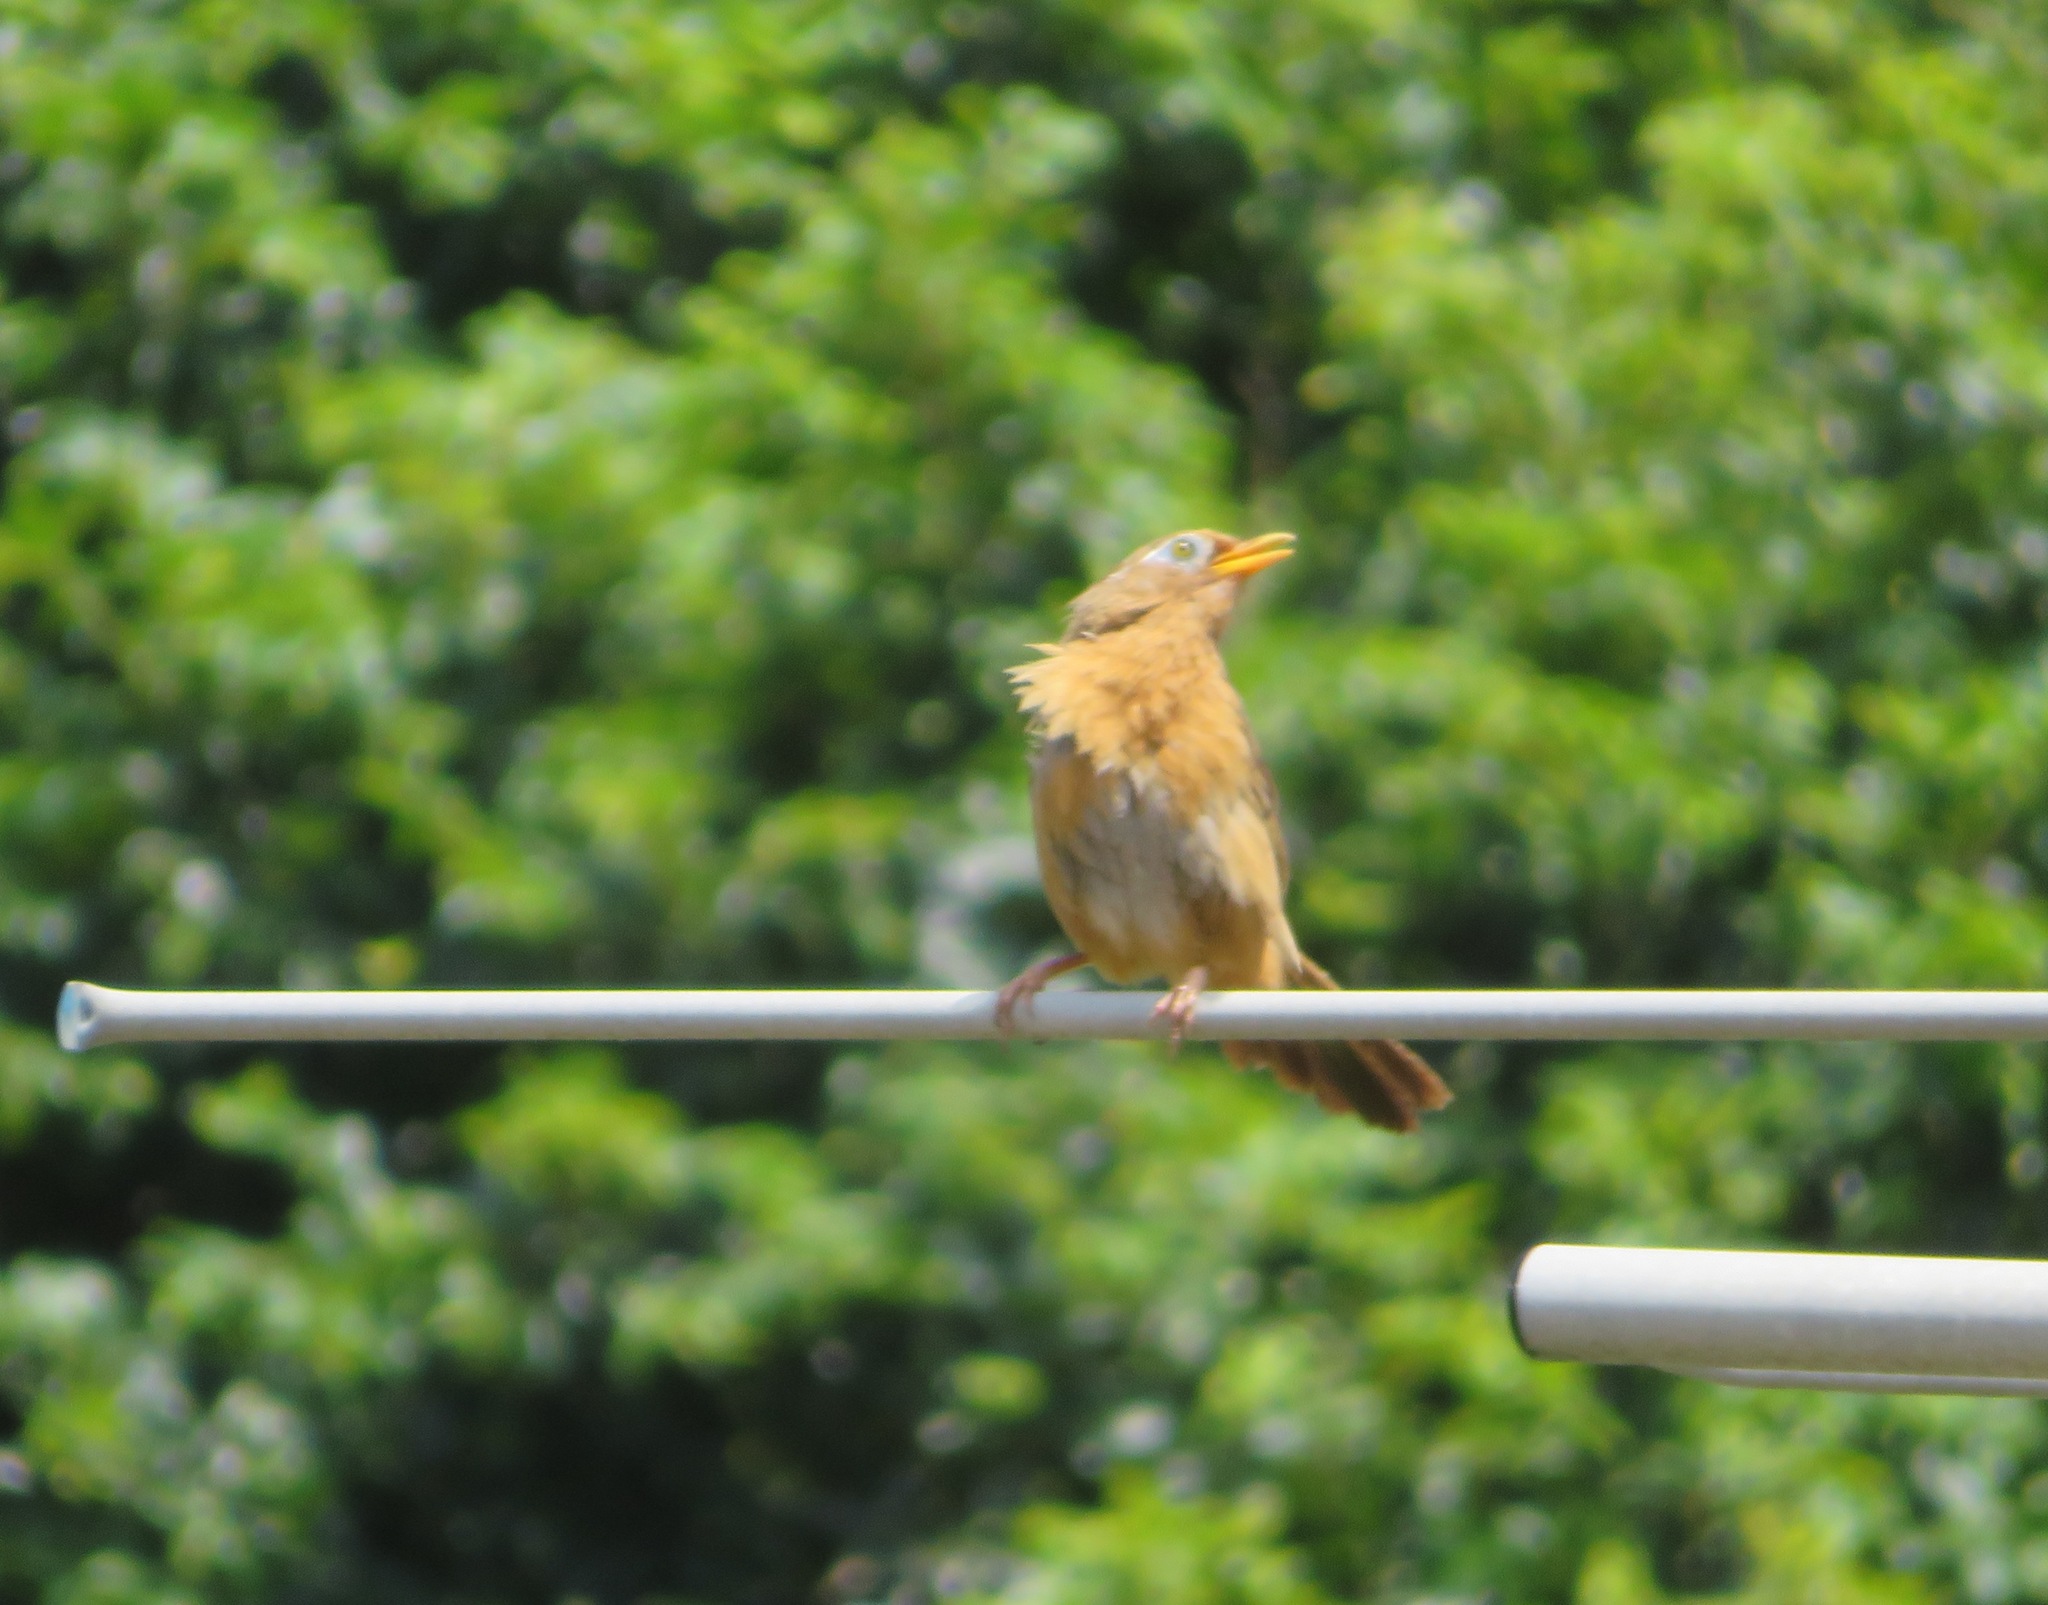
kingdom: Animalia
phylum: Chordata
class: Aves
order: Passeriformes
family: Leiothrichidae
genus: Garrulax
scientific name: Garrulax canorus
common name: Chinese hwamei
